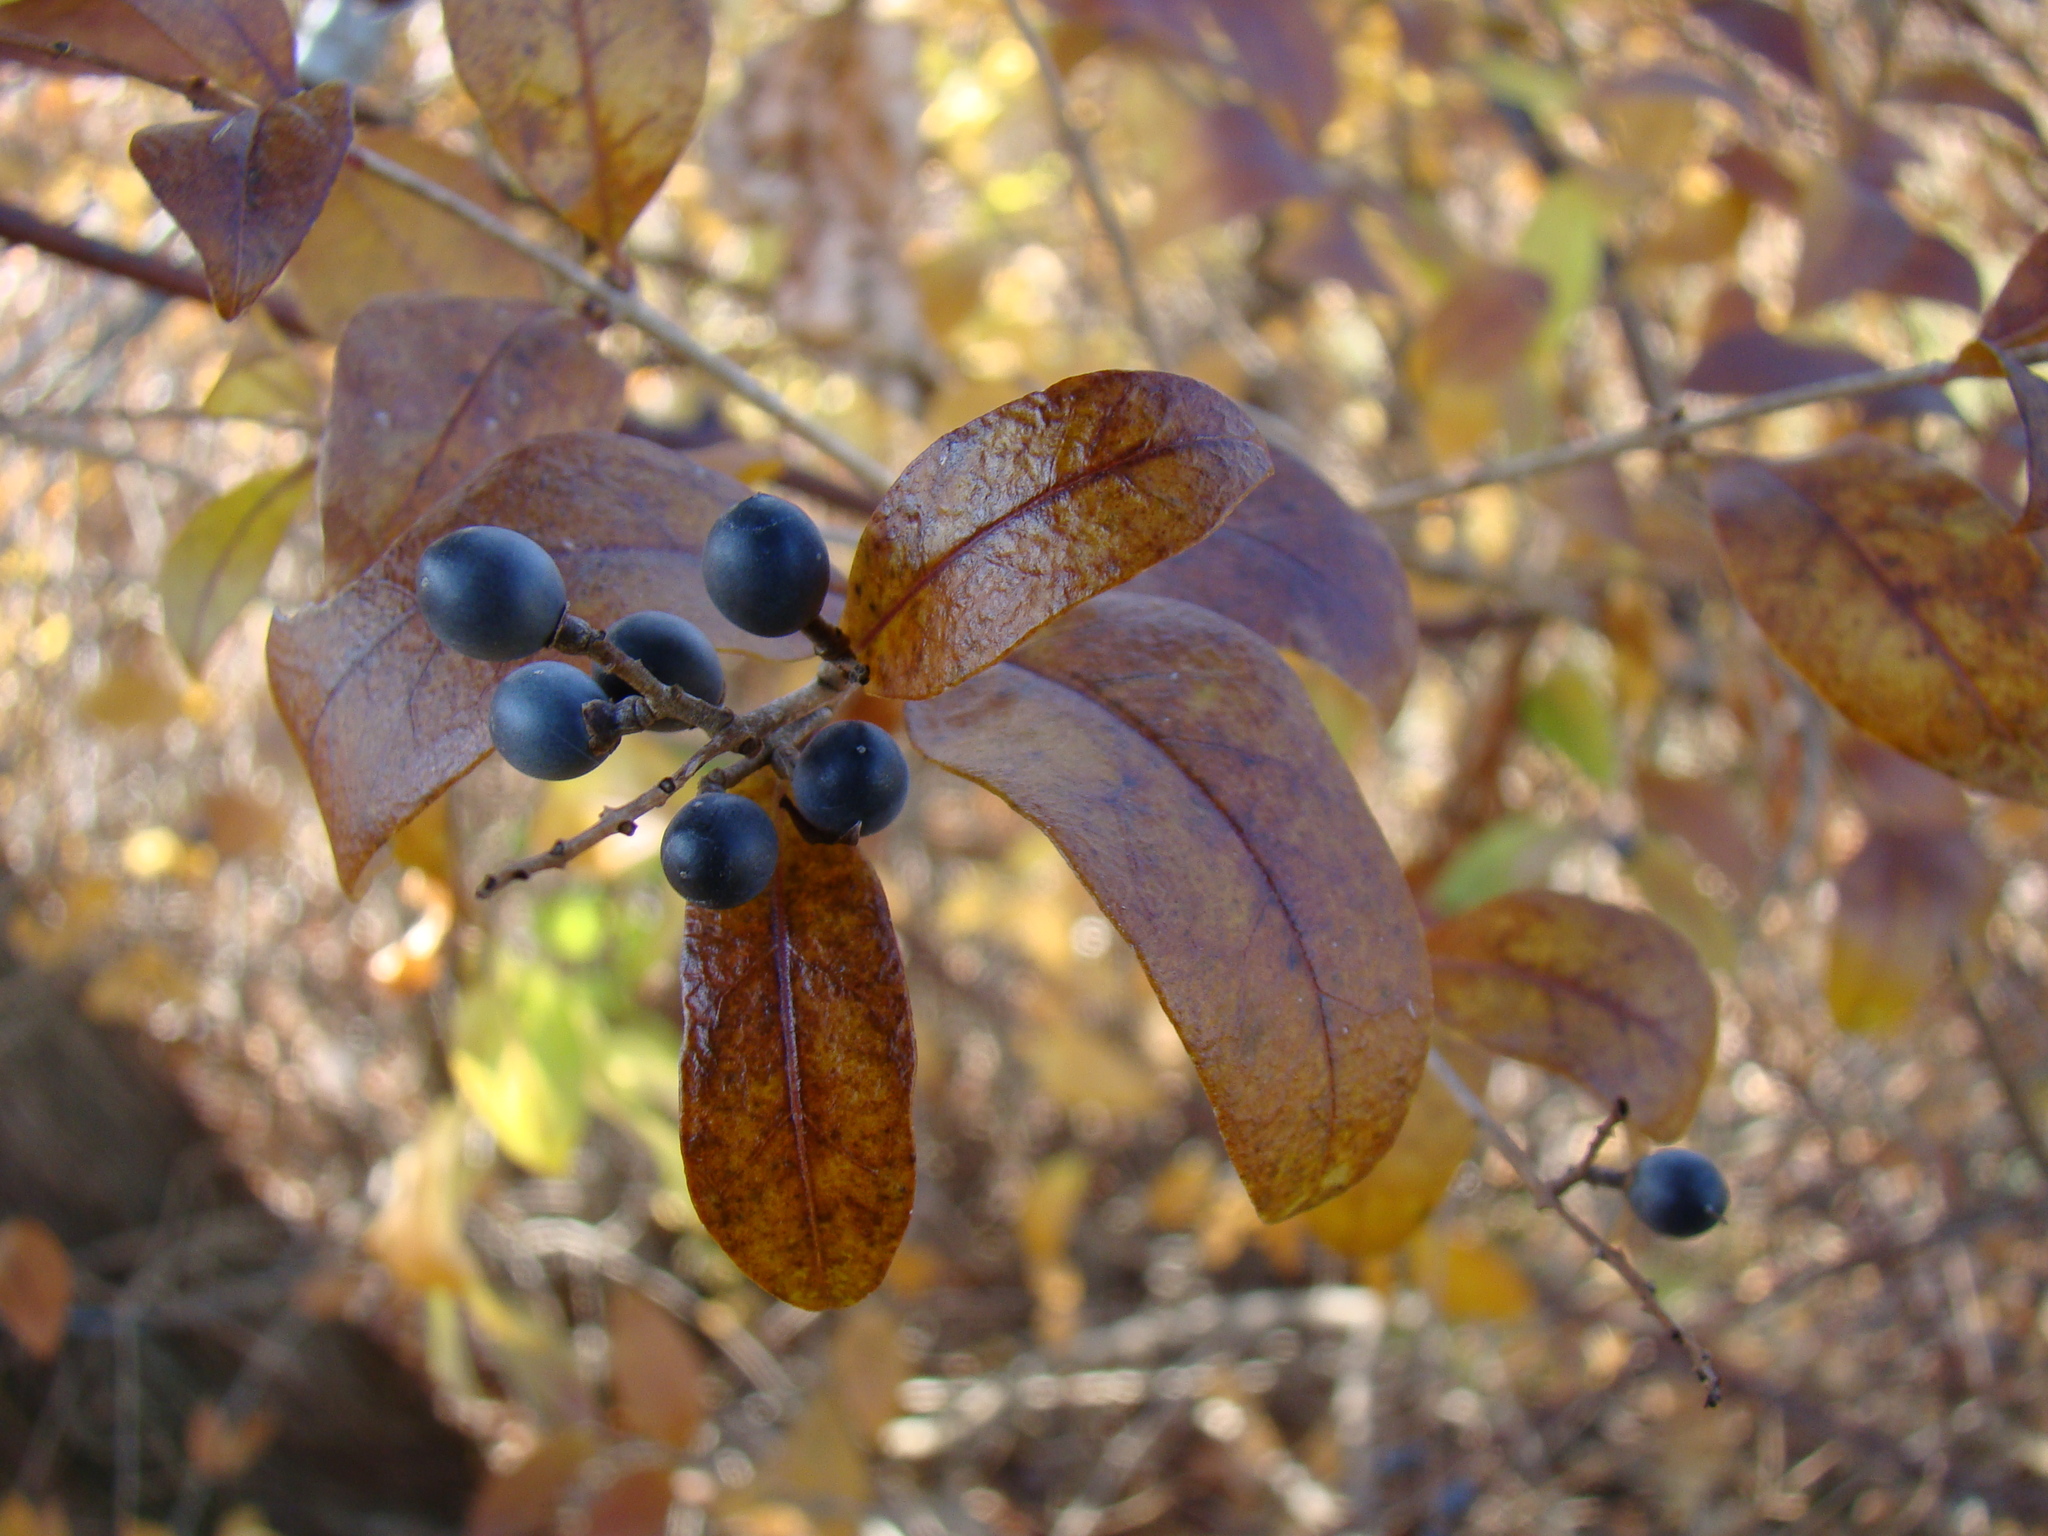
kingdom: Plantae
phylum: Tracheophyta
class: Magnoliopsida
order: Lamiales
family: Oleaceae
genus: Ligustrum
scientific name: Ligustrum obtusifolium
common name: Border privet
